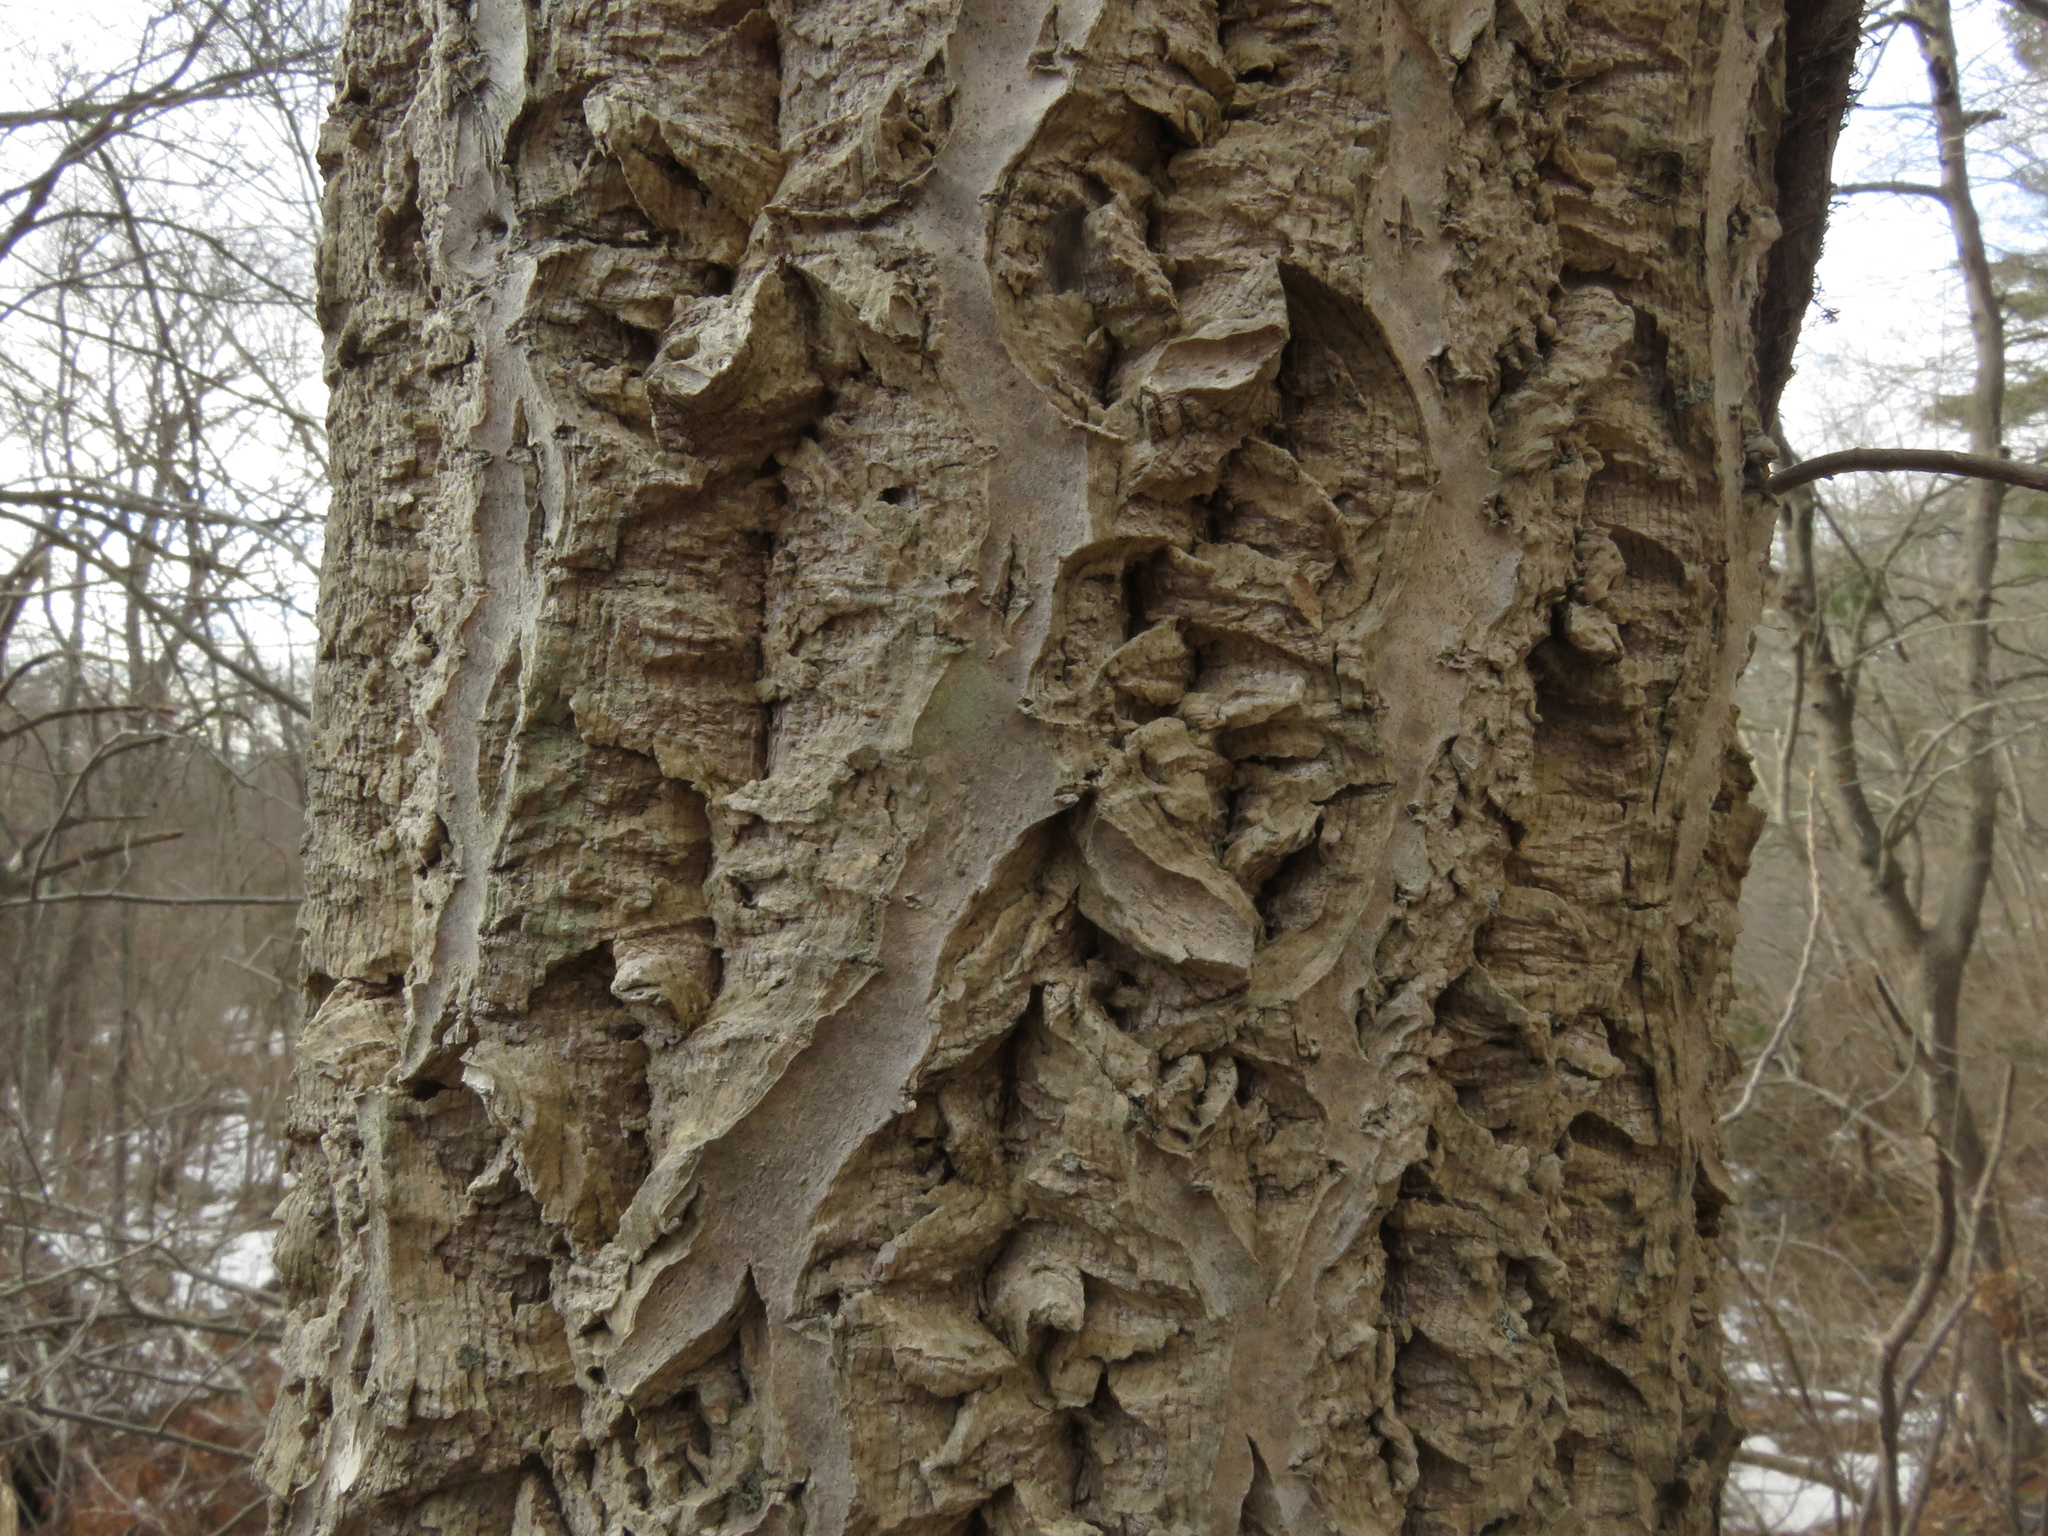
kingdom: Plantae
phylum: Tracheophyta
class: Magnoliopsida
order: Sapindales
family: Rutaceae
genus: Phellodendron
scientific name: Phellodendron amurense
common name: Amur corktree
